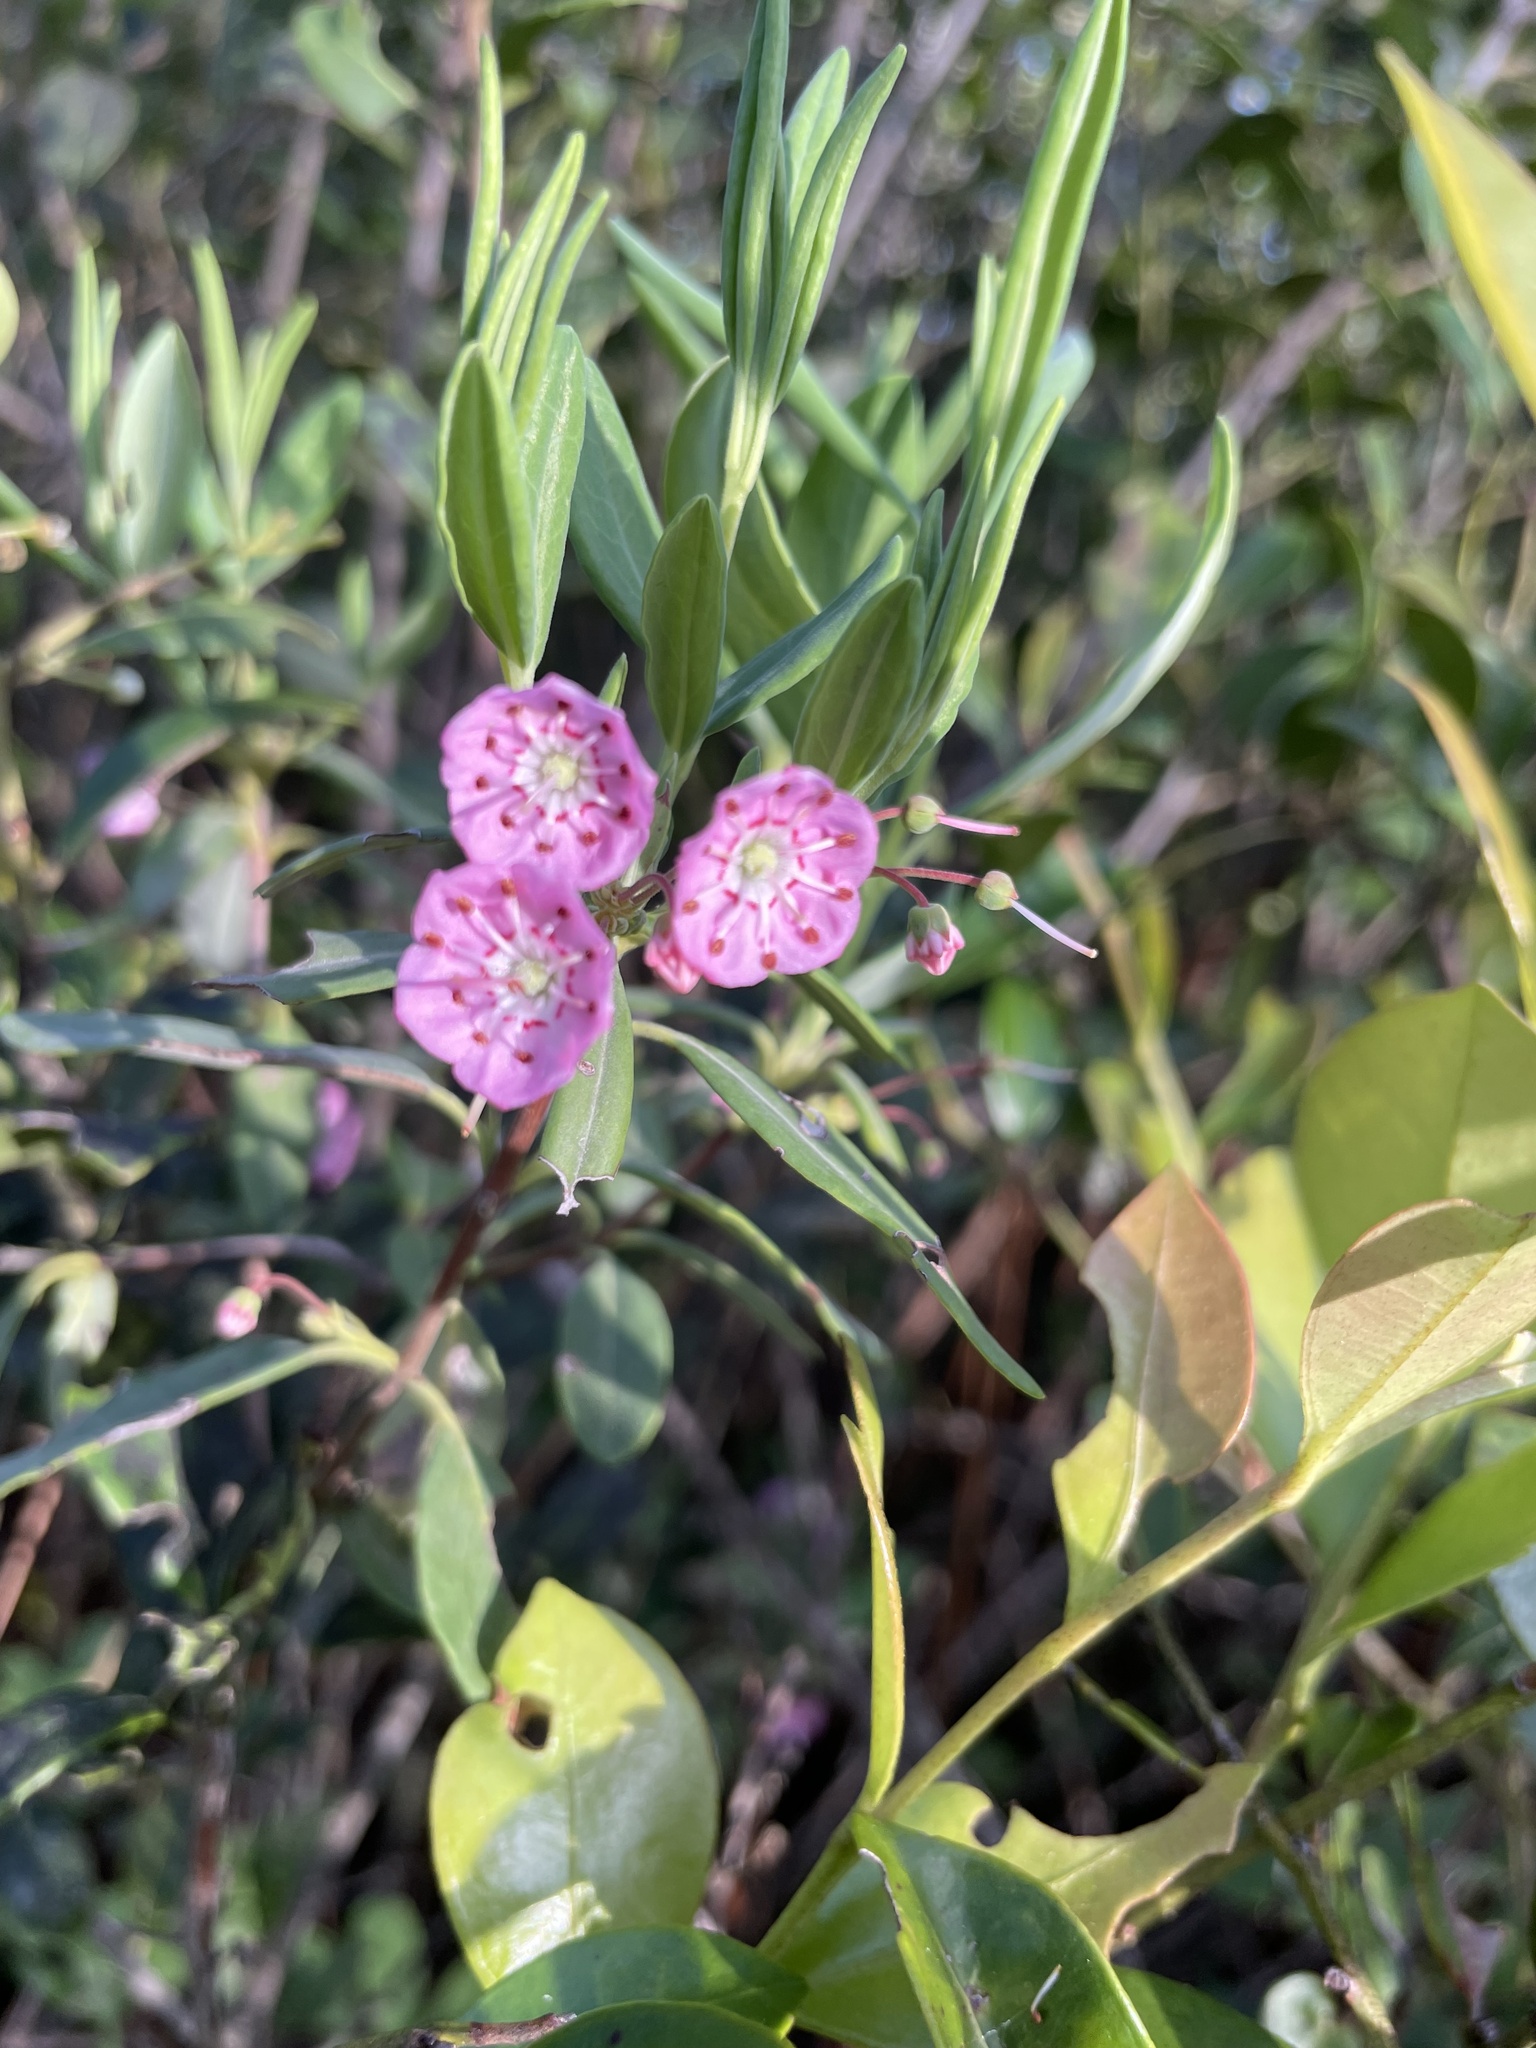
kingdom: Plantae
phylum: Tracheophyta
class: Magnoliopsida
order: Ericales
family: Ericaceae
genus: Kalmia
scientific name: Kalmia angustifolia
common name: Sheep-laurel
